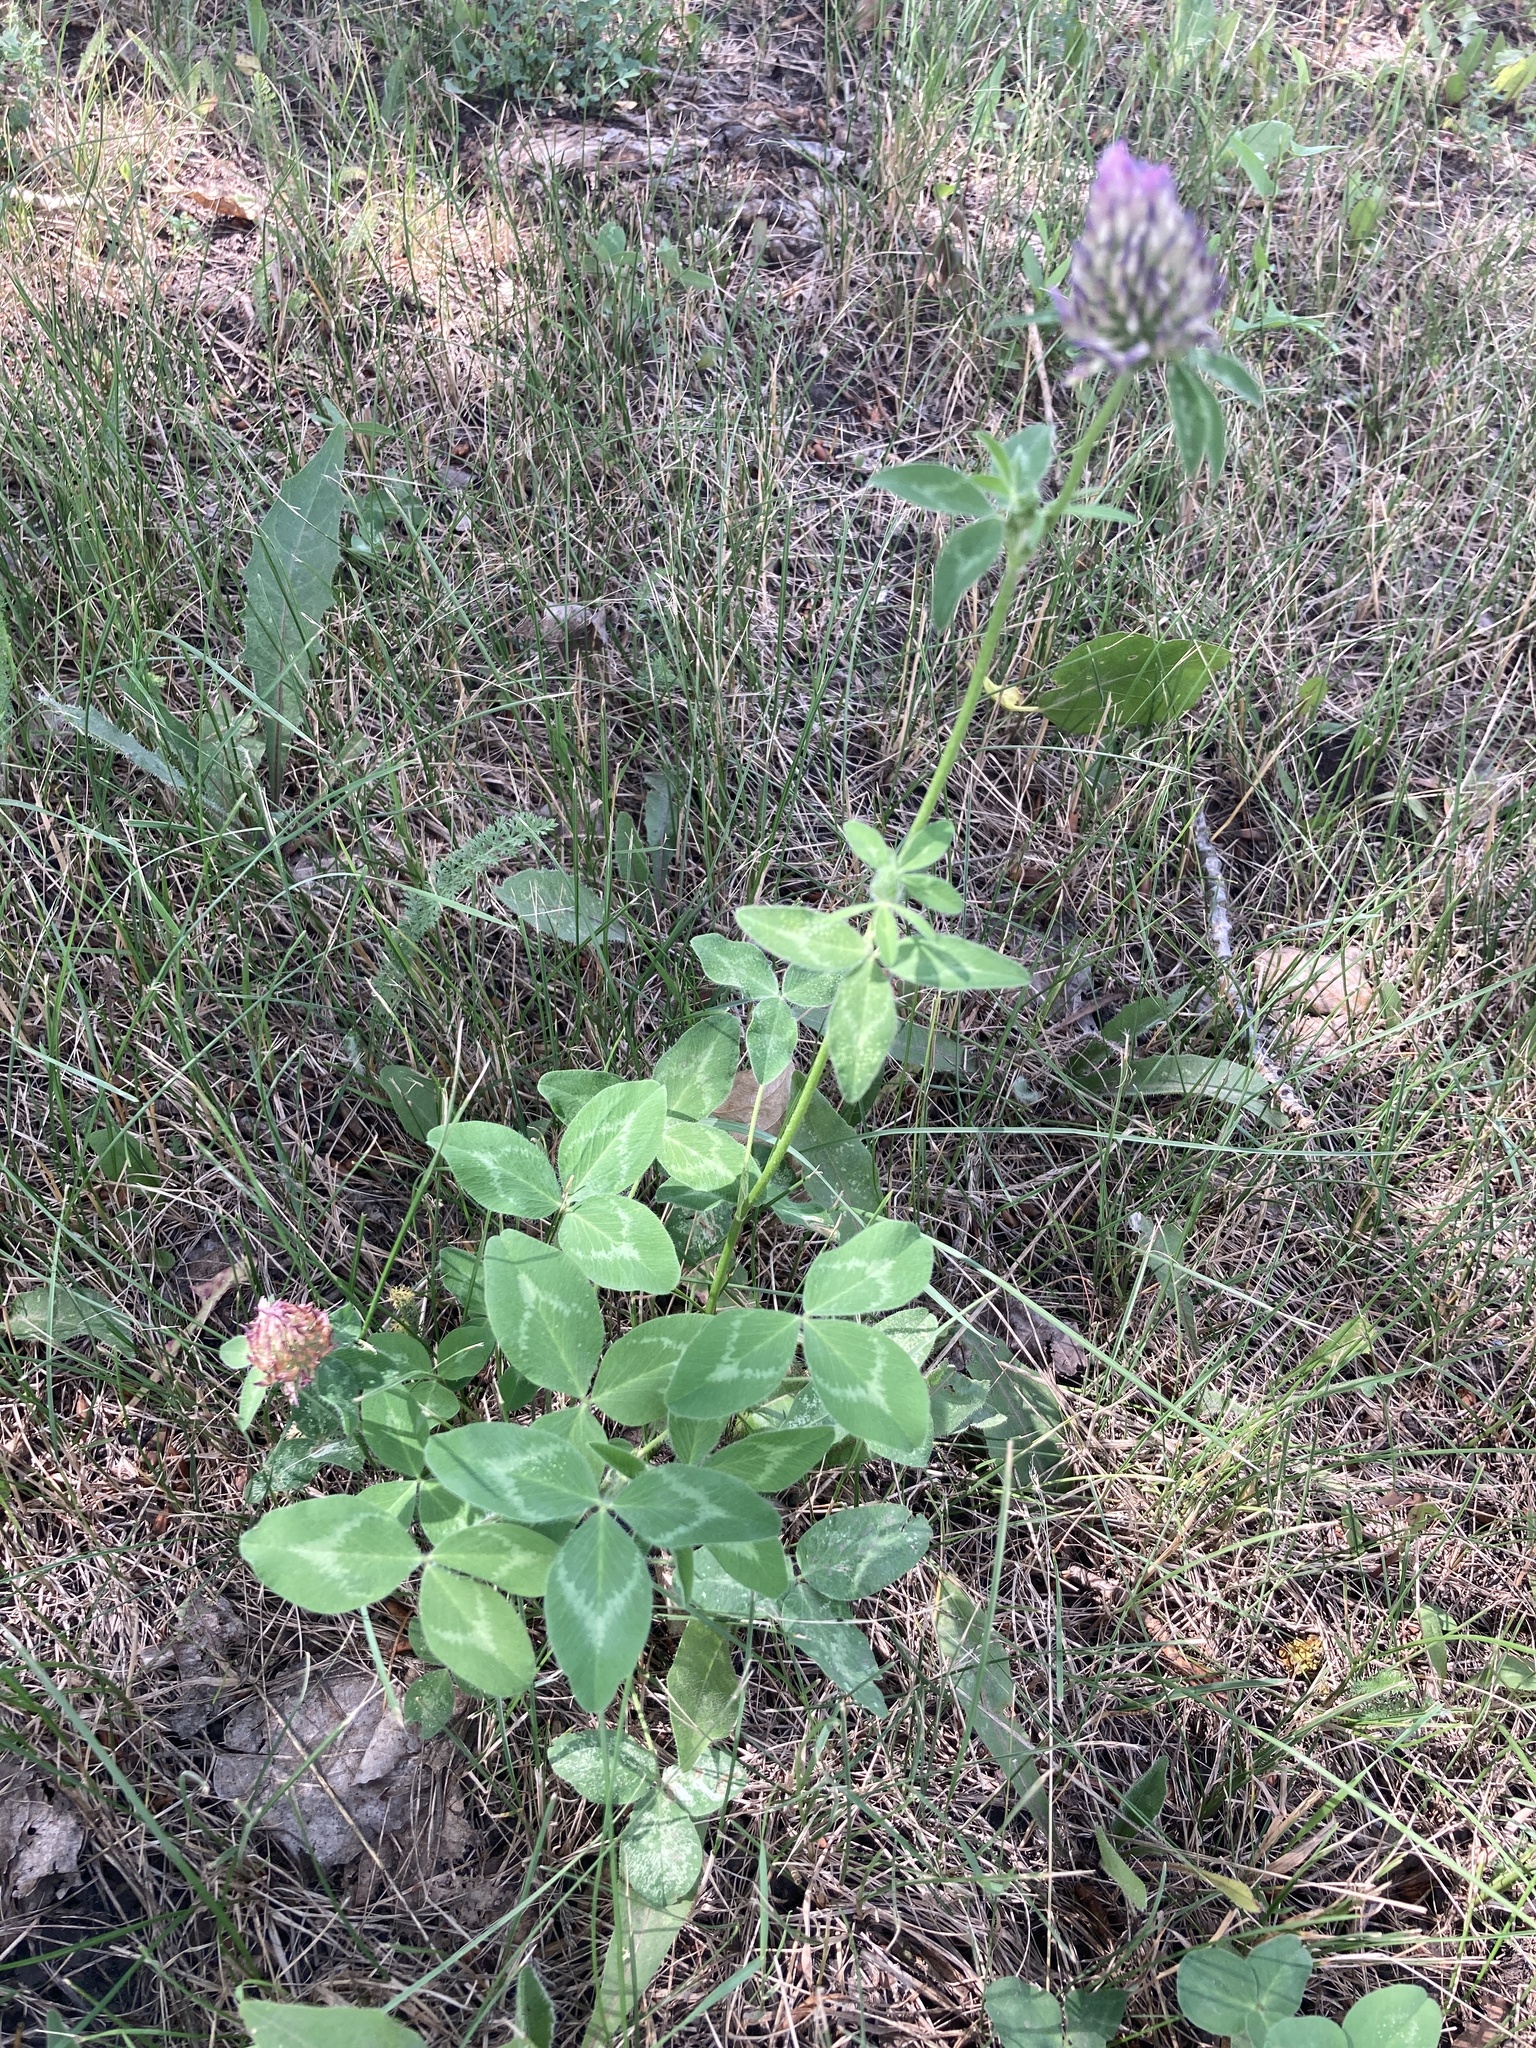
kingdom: Plantae
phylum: Tracheophyta
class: Magnoliopsida
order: Fabales
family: Fabaceae
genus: Trifolium
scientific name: Trifolium pratense
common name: Red clover
